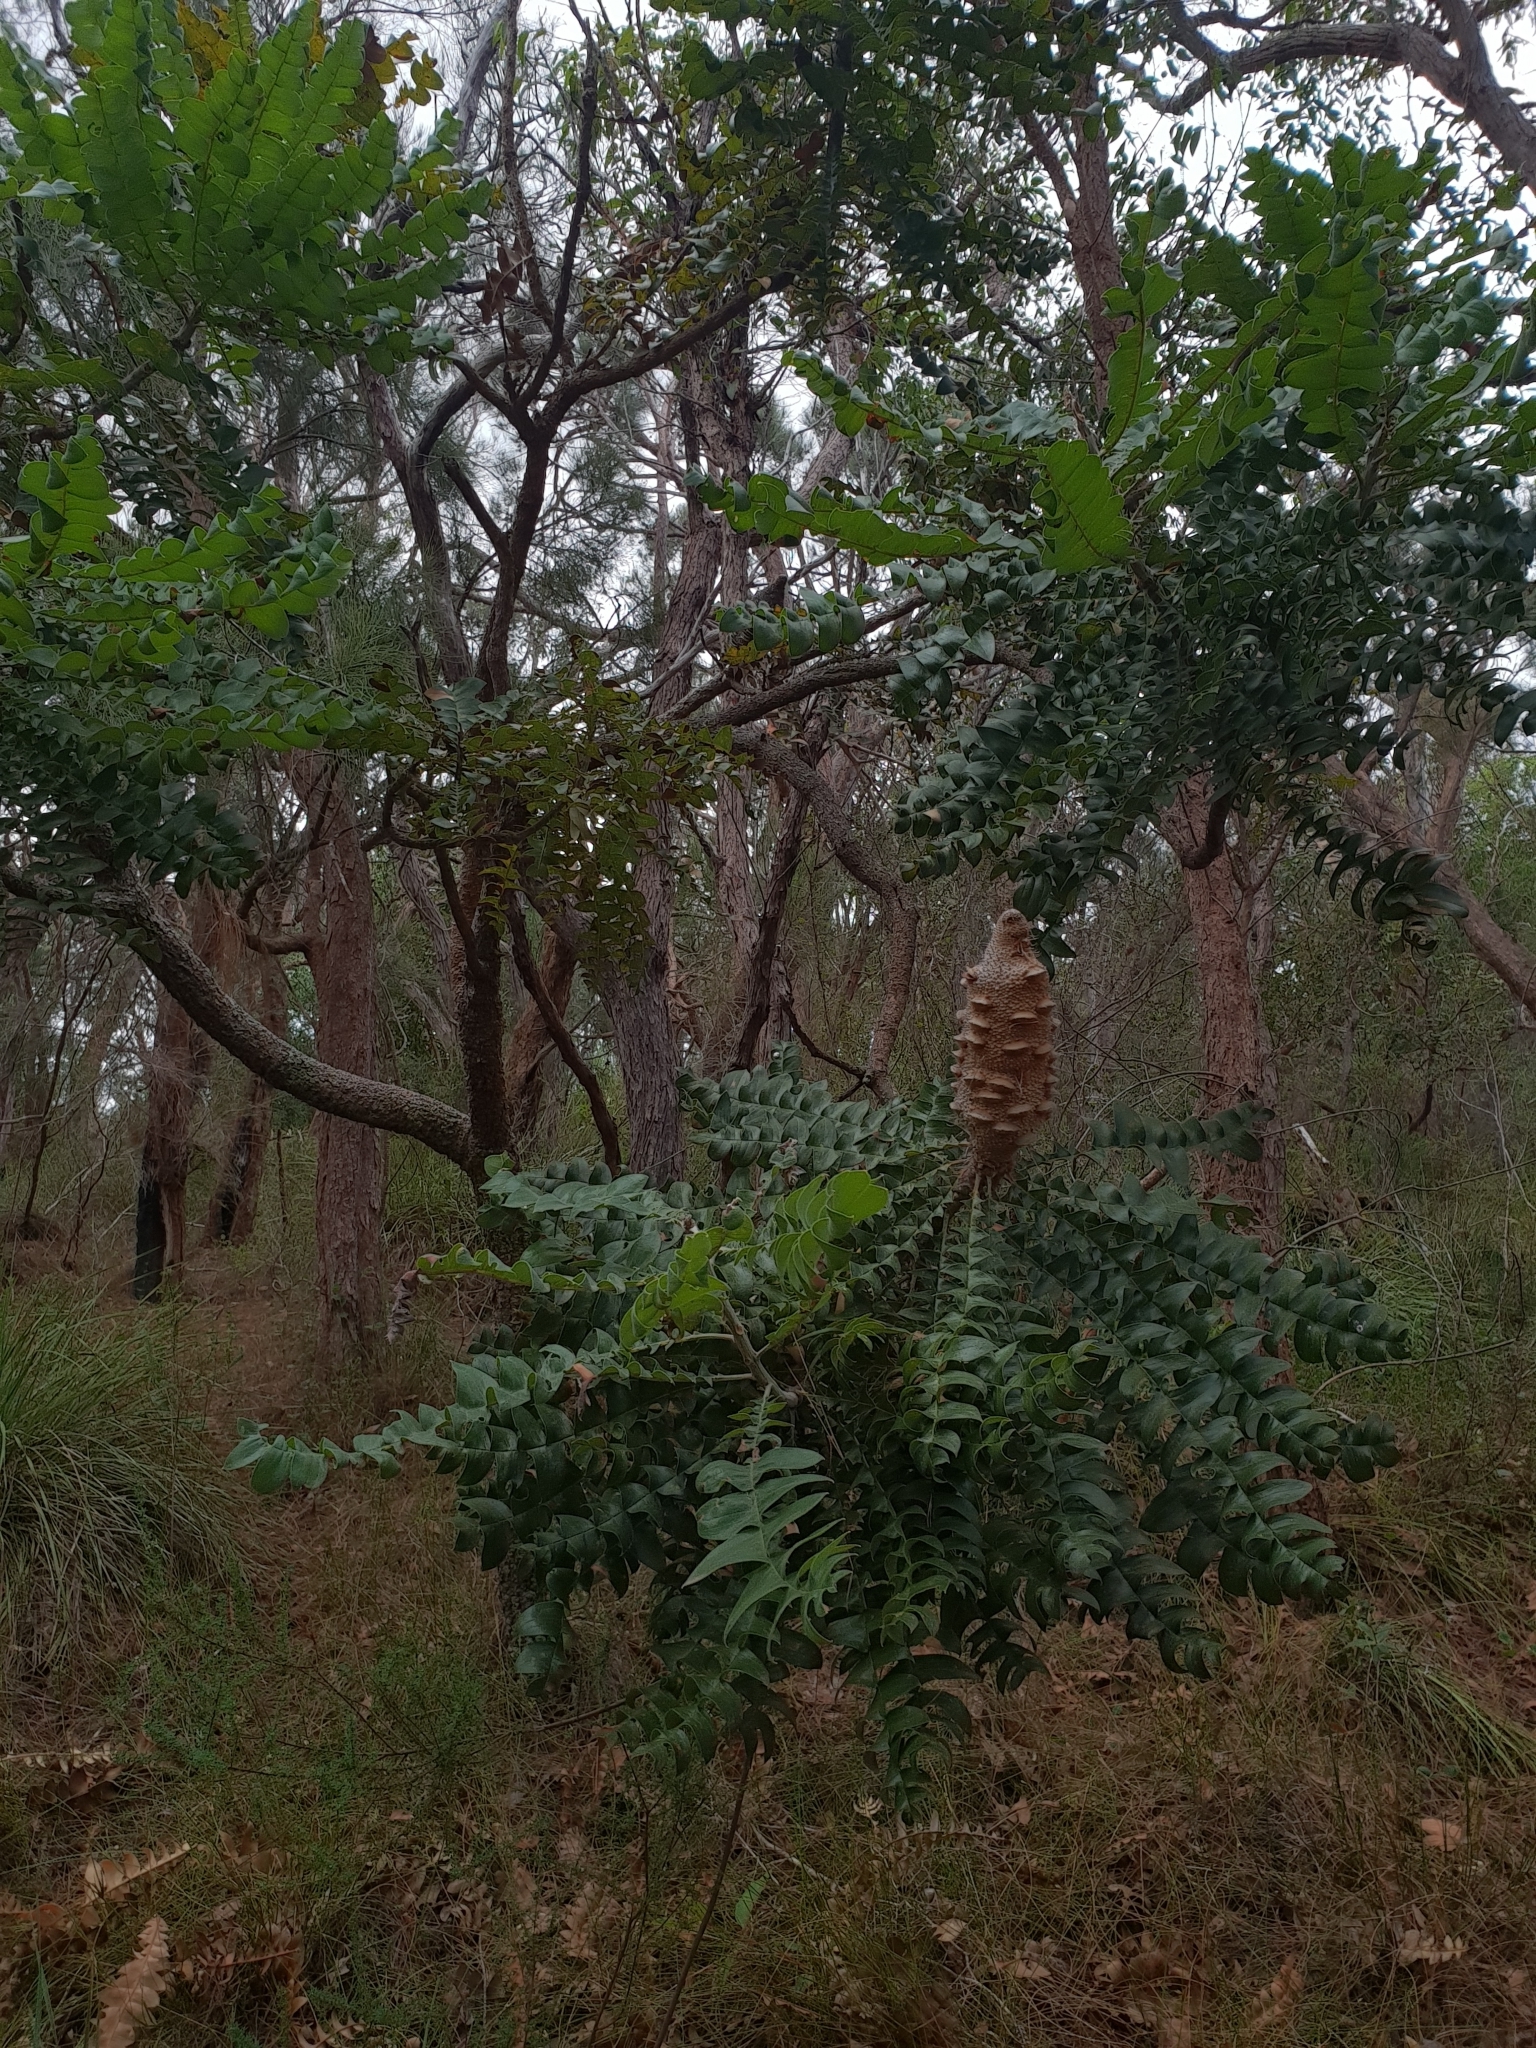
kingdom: Plantae
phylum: Tracheophyta
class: Magnoliopsida
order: Proteales
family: Proteaceae
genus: Banksia
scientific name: Banksia grandis
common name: Giant banksia
